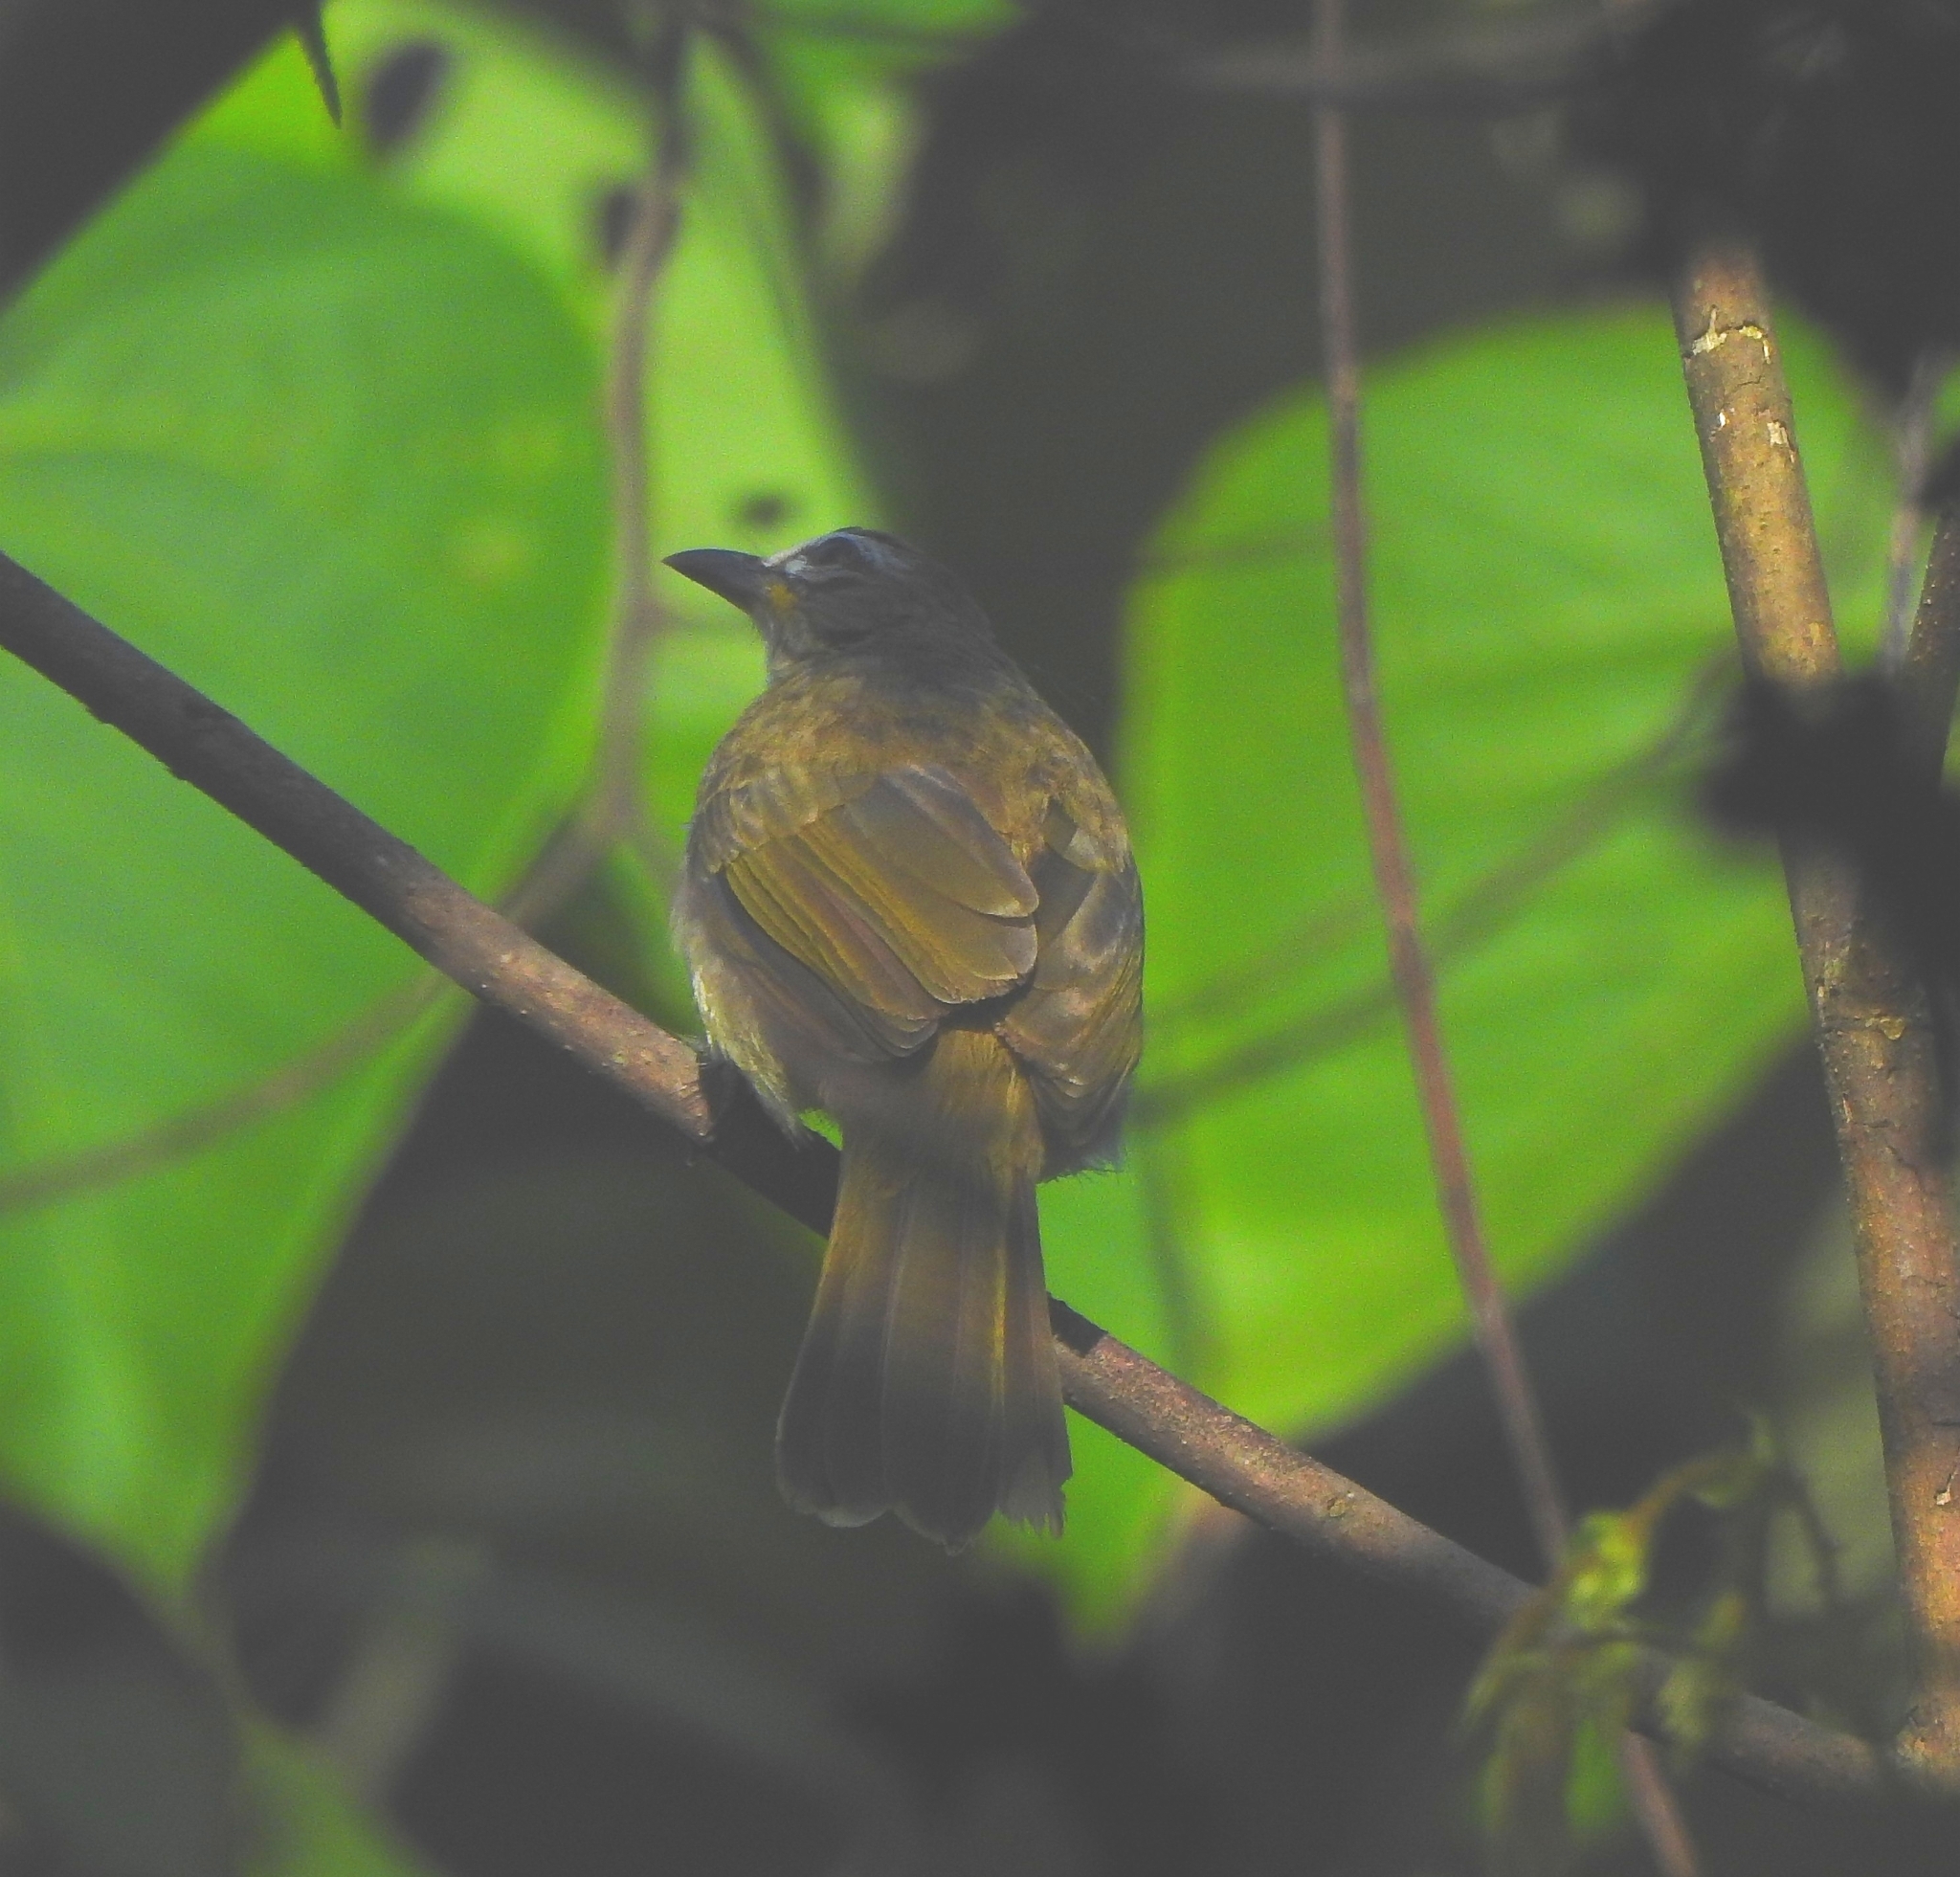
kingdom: Animalia
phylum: Chordata
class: Aves
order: Passeriformes
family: Pycnonotidae
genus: Pycnonotus
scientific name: Pycnonotus luteolus
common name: White-browed bulbul
